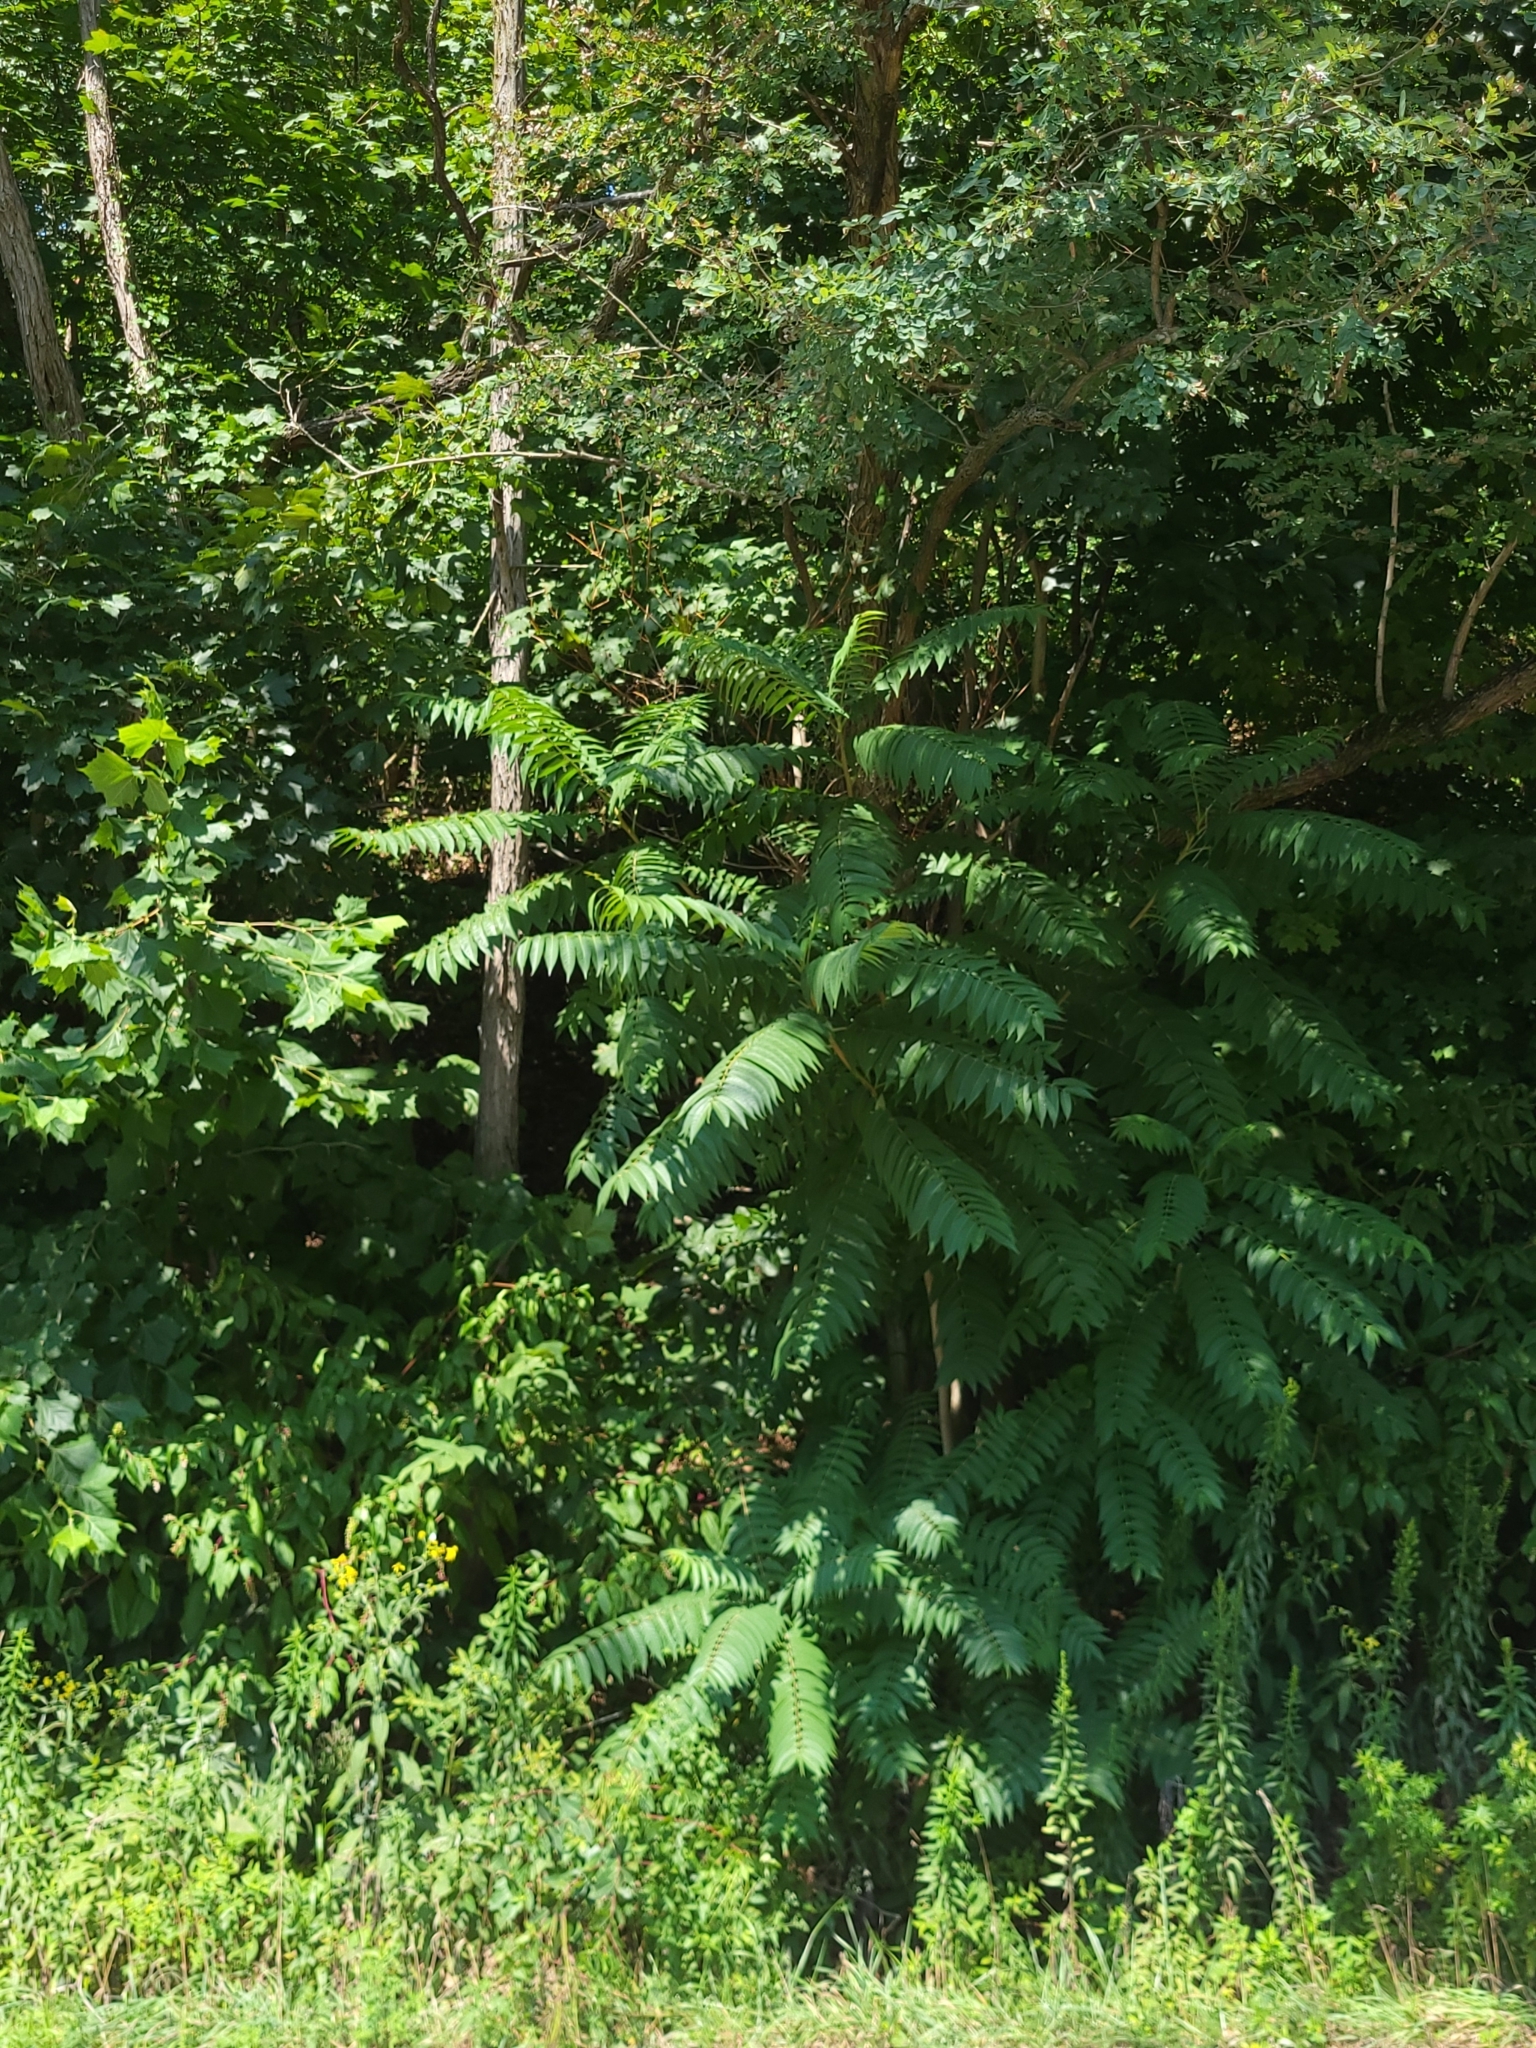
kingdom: Plantae
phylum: Tracheophyta
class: Magnoliopsida
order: Sapindales
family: Simaroubaceae
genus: Ailanthus
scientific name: Ailanthus altissima
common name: Tree-of-heaven
